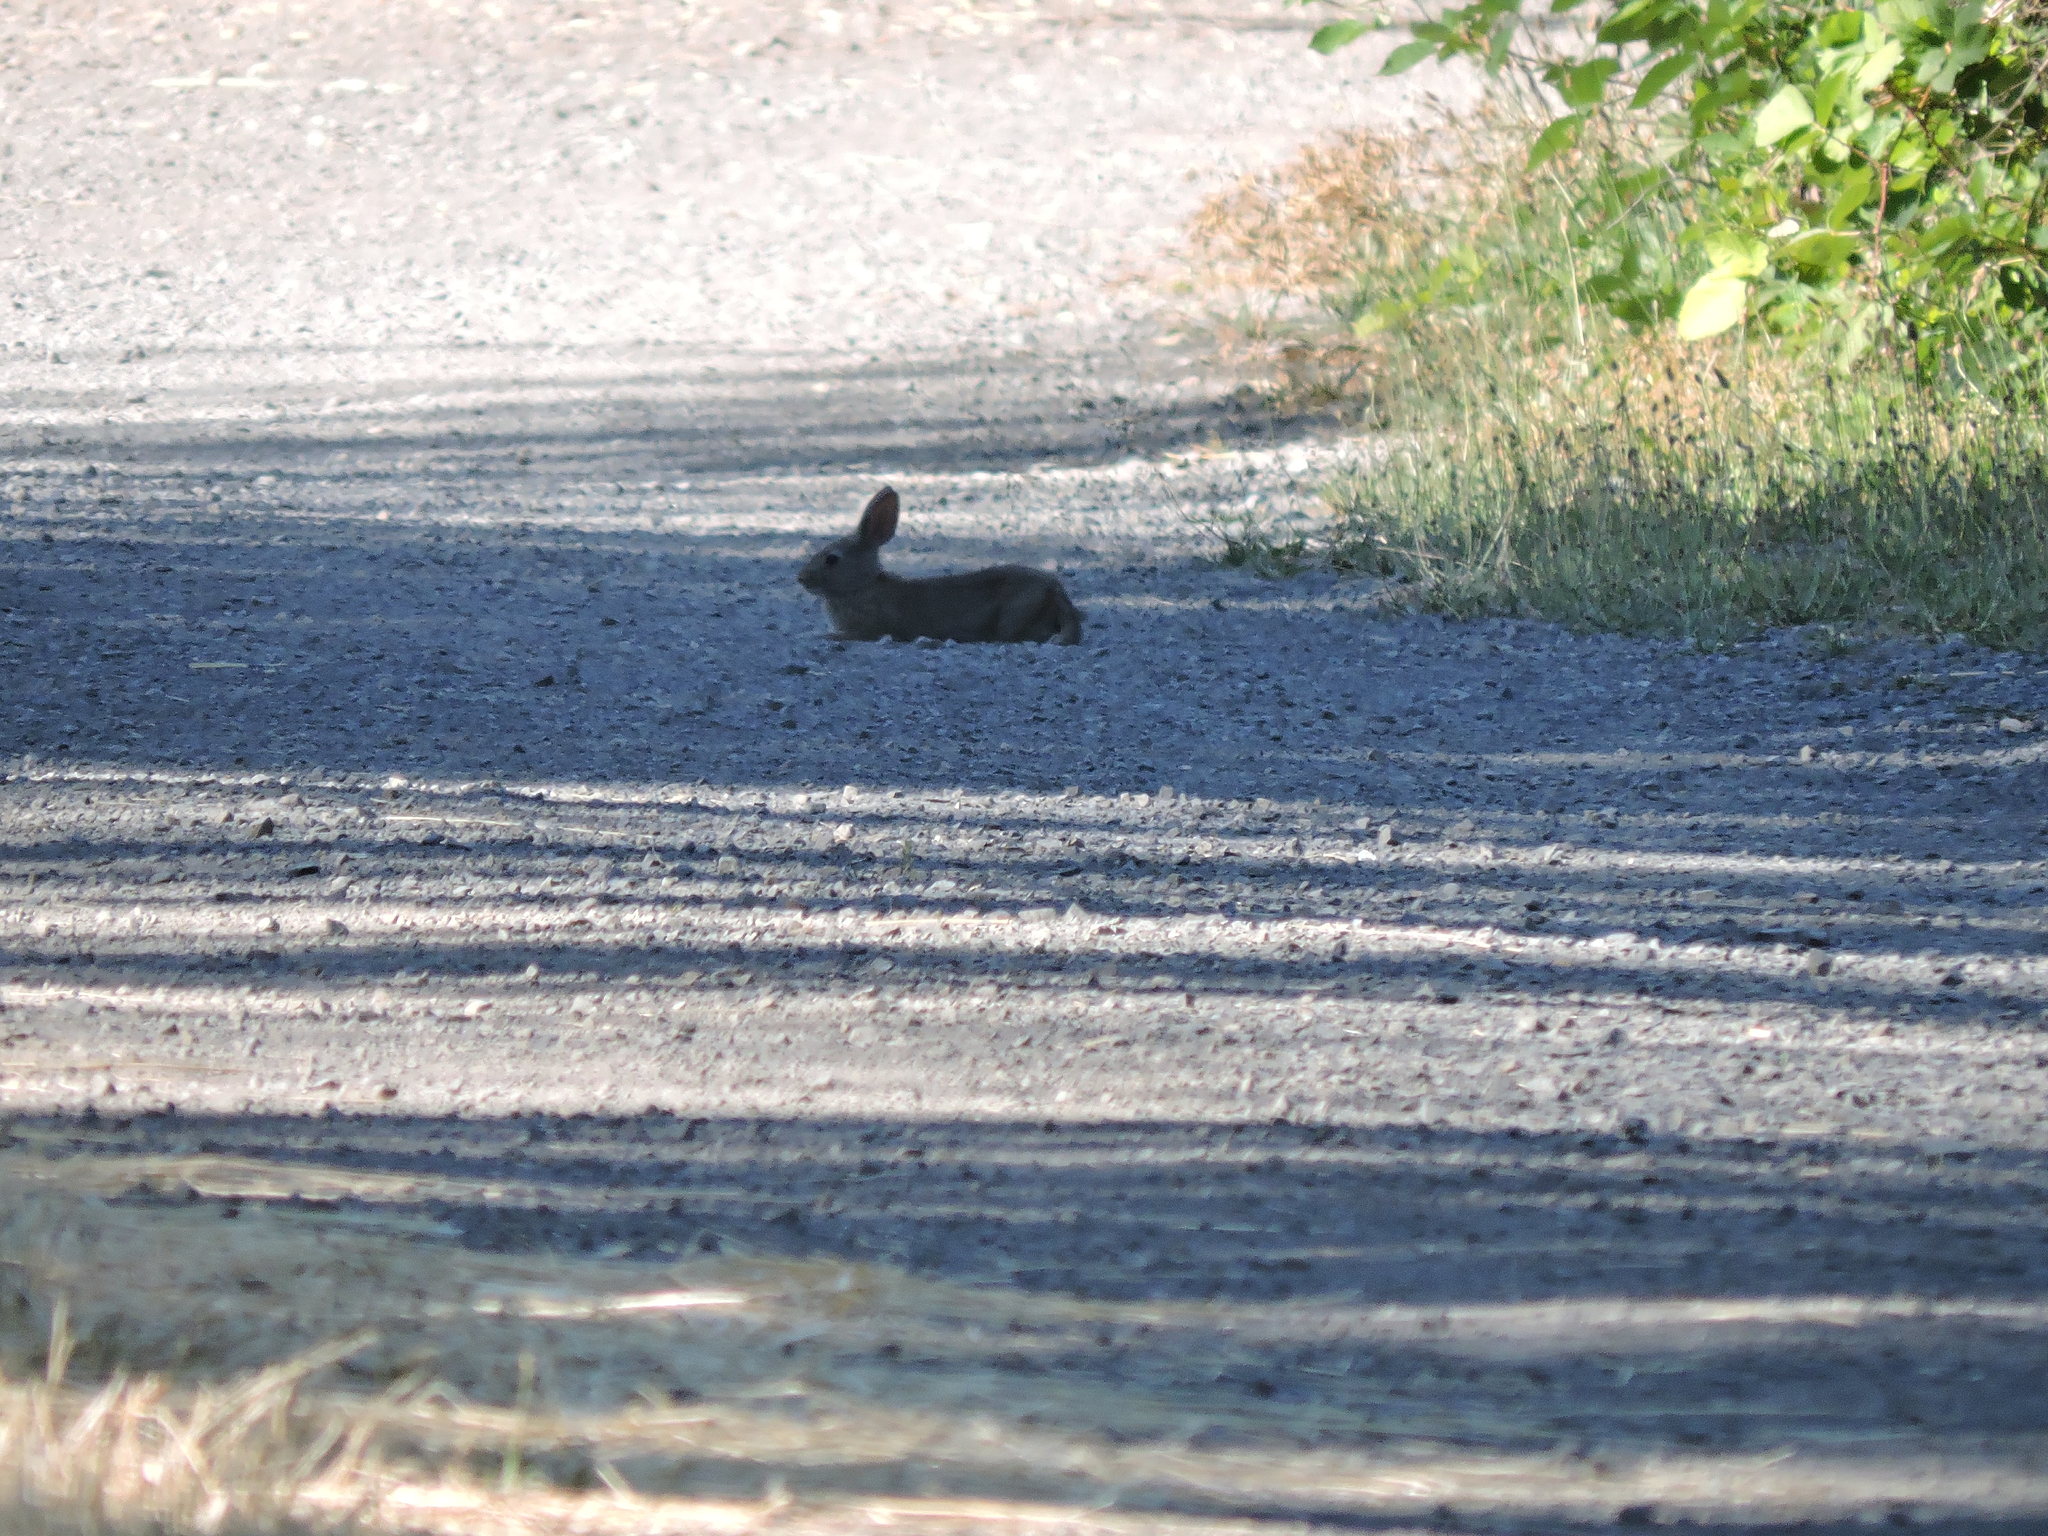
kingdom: Animalia
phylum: Chordata
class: Mammalia
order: Lagomorpha
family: Leporidae
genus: Sylvilagus
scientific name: Sylvilagus bachmani
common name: Brush rabbit
